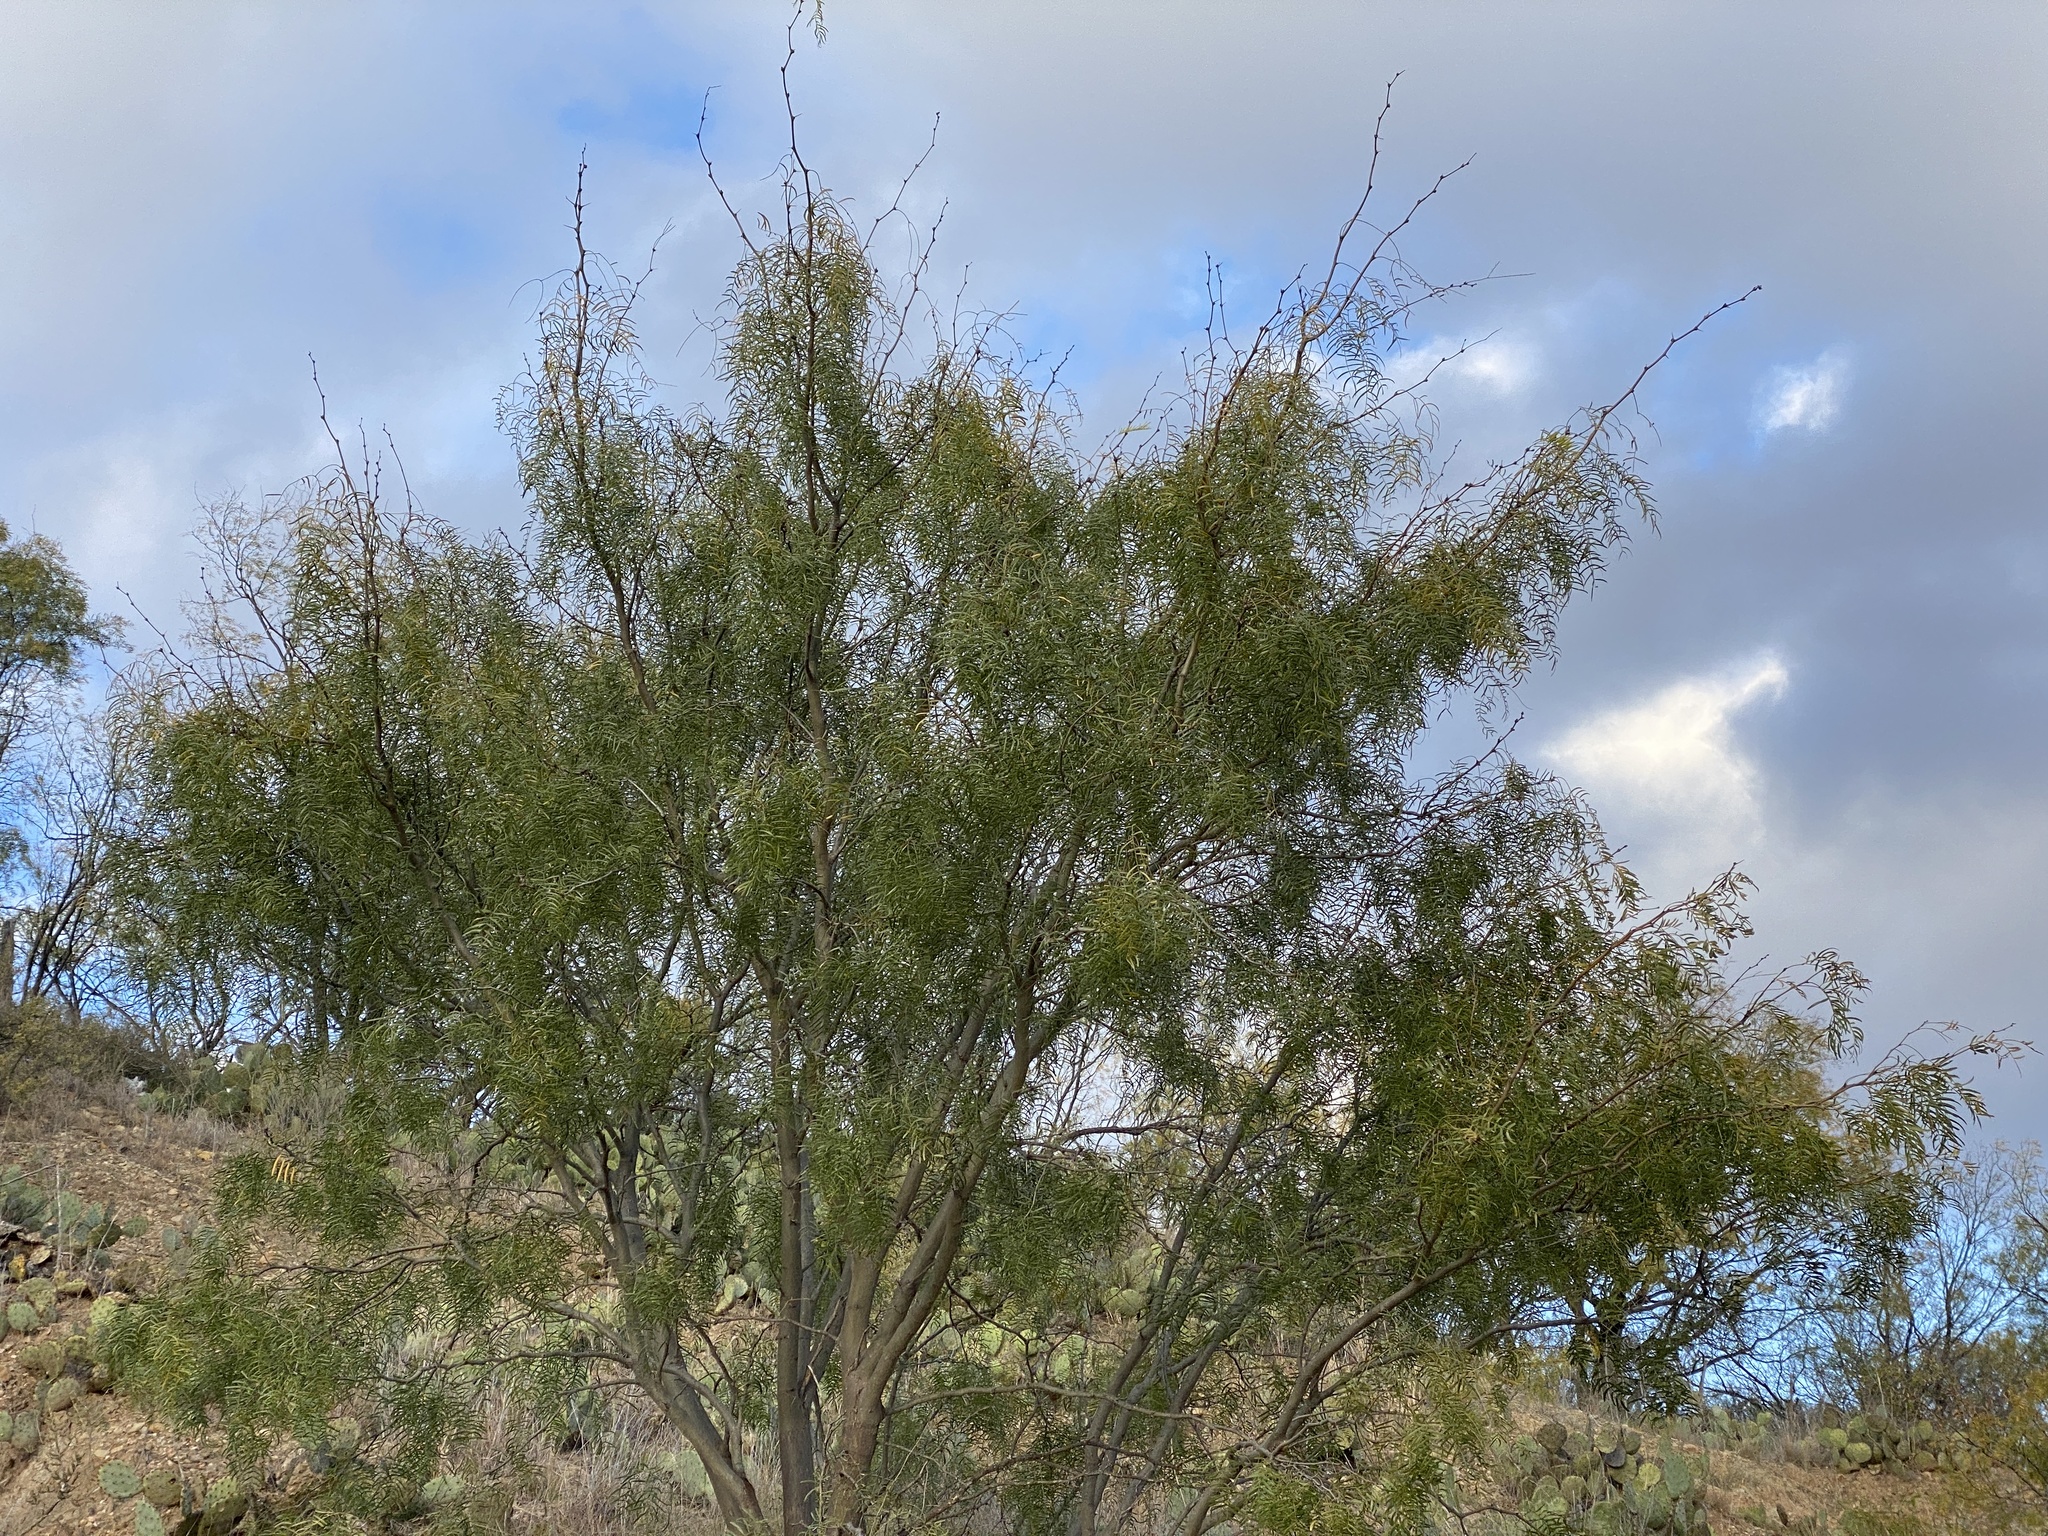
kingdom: Plantae
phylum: Tracheophyta
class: Magnoliopsida
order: Fabales
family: Fabaceae
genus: Prosopis
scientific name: Prosopis glandulosa
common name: Honey mesquite
